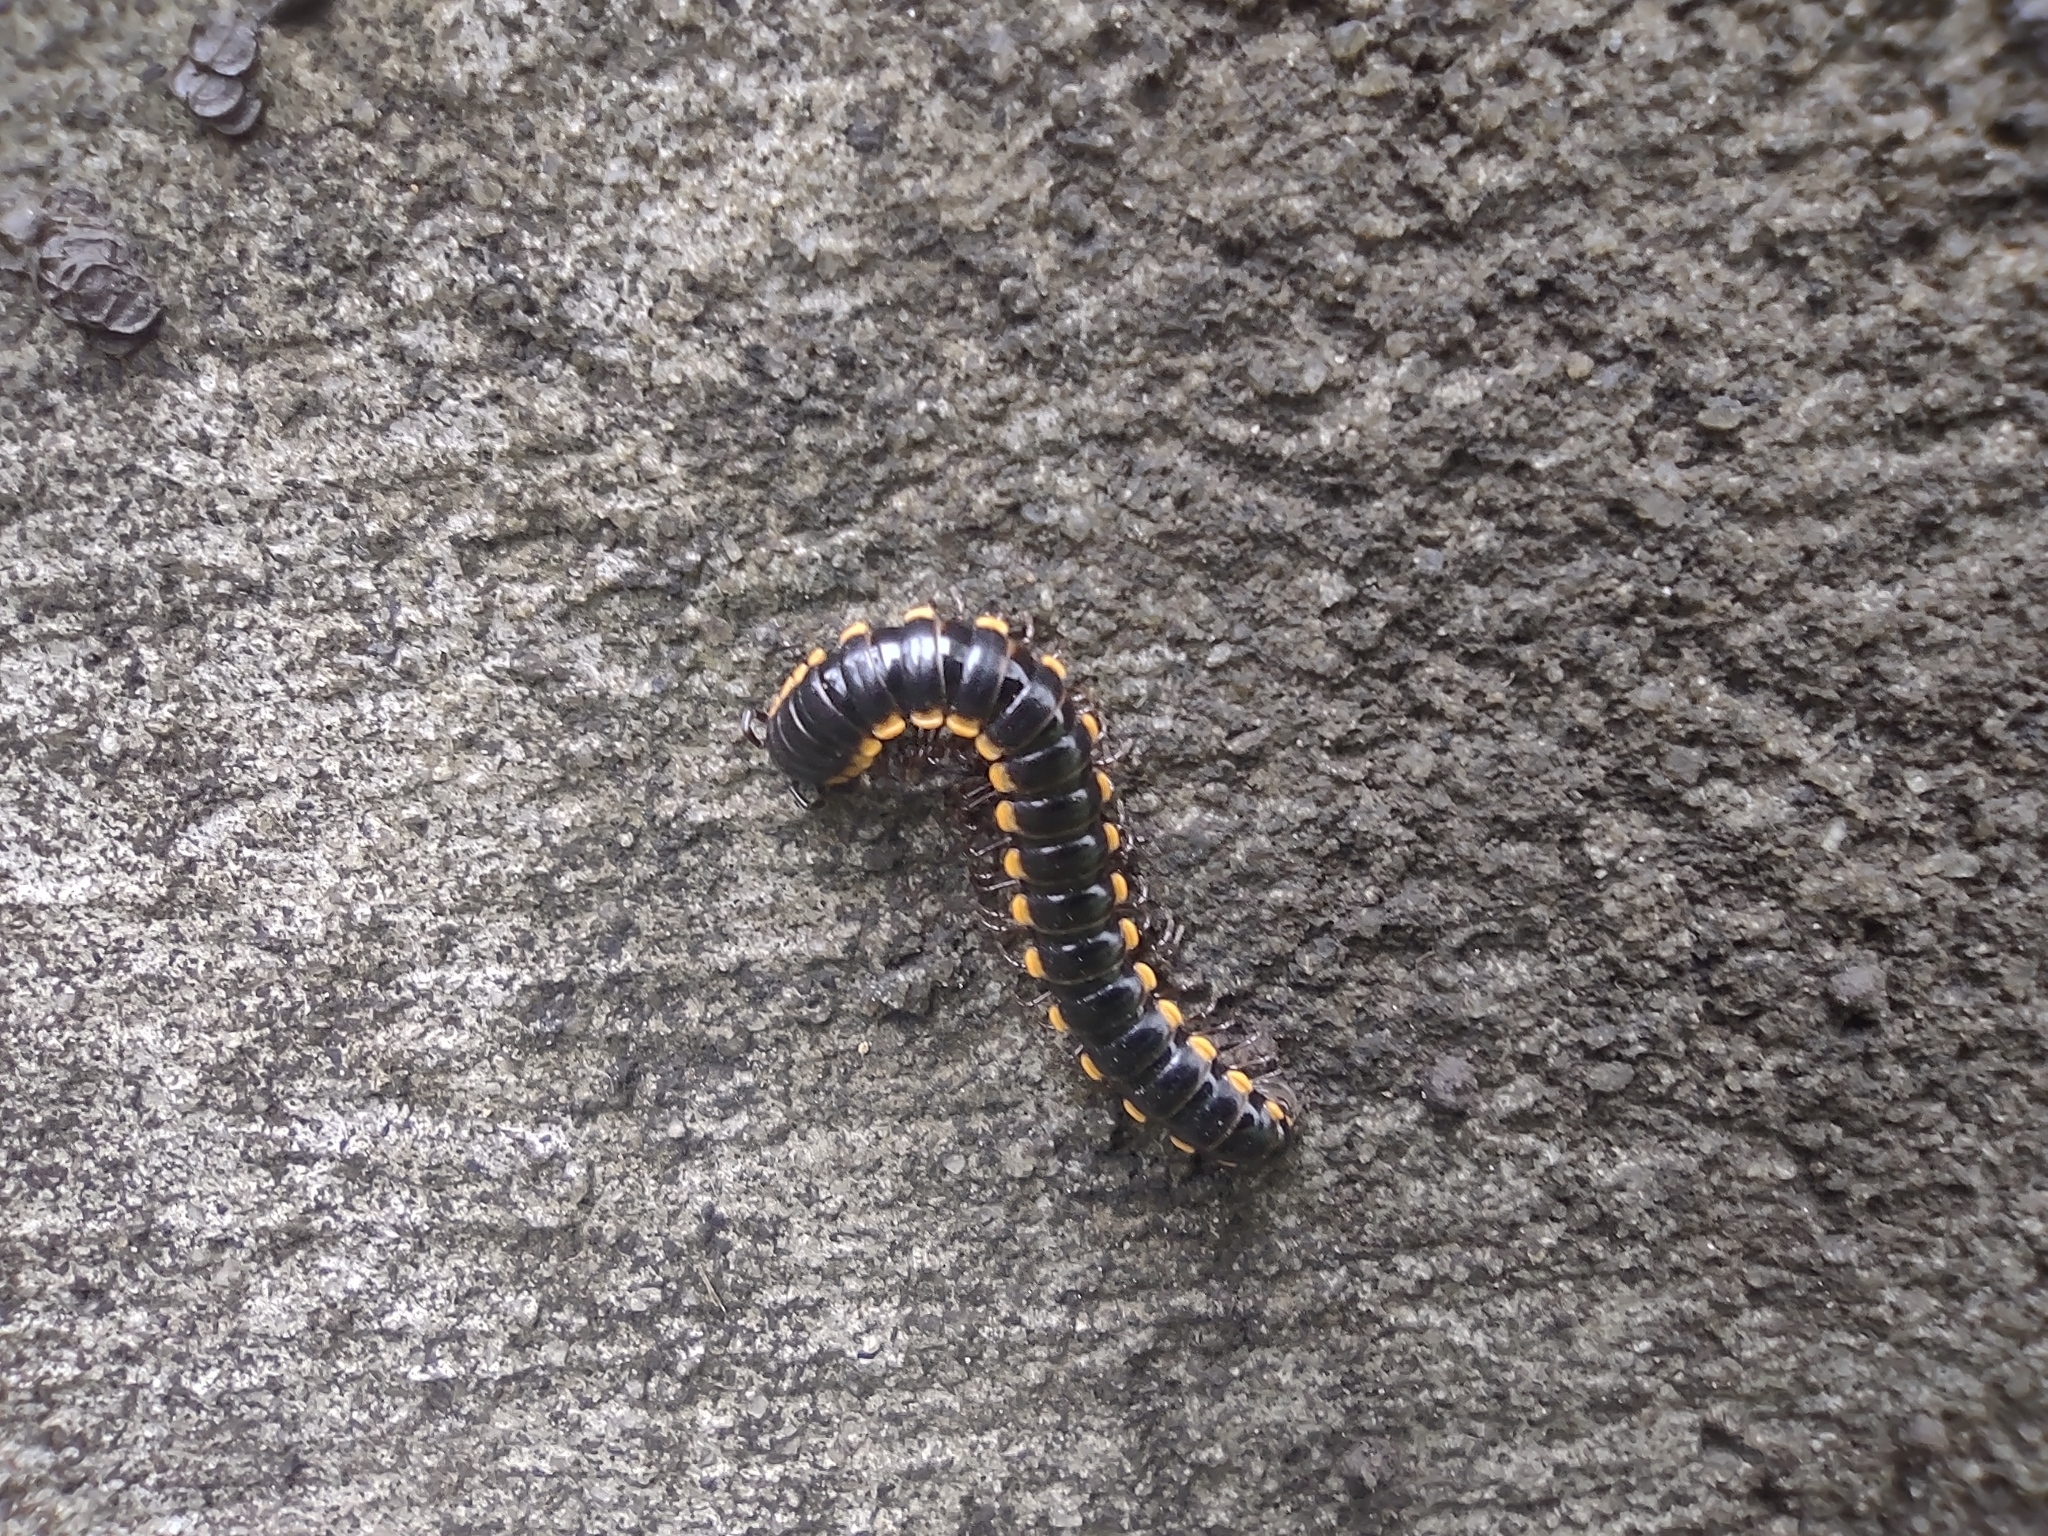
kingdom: Animalia
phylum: Arthropoda
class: Diplopoda
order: Polydesmida
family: Paradoxosomatidae
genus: Orthomorpha
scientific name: Orthomorpha coarctata
